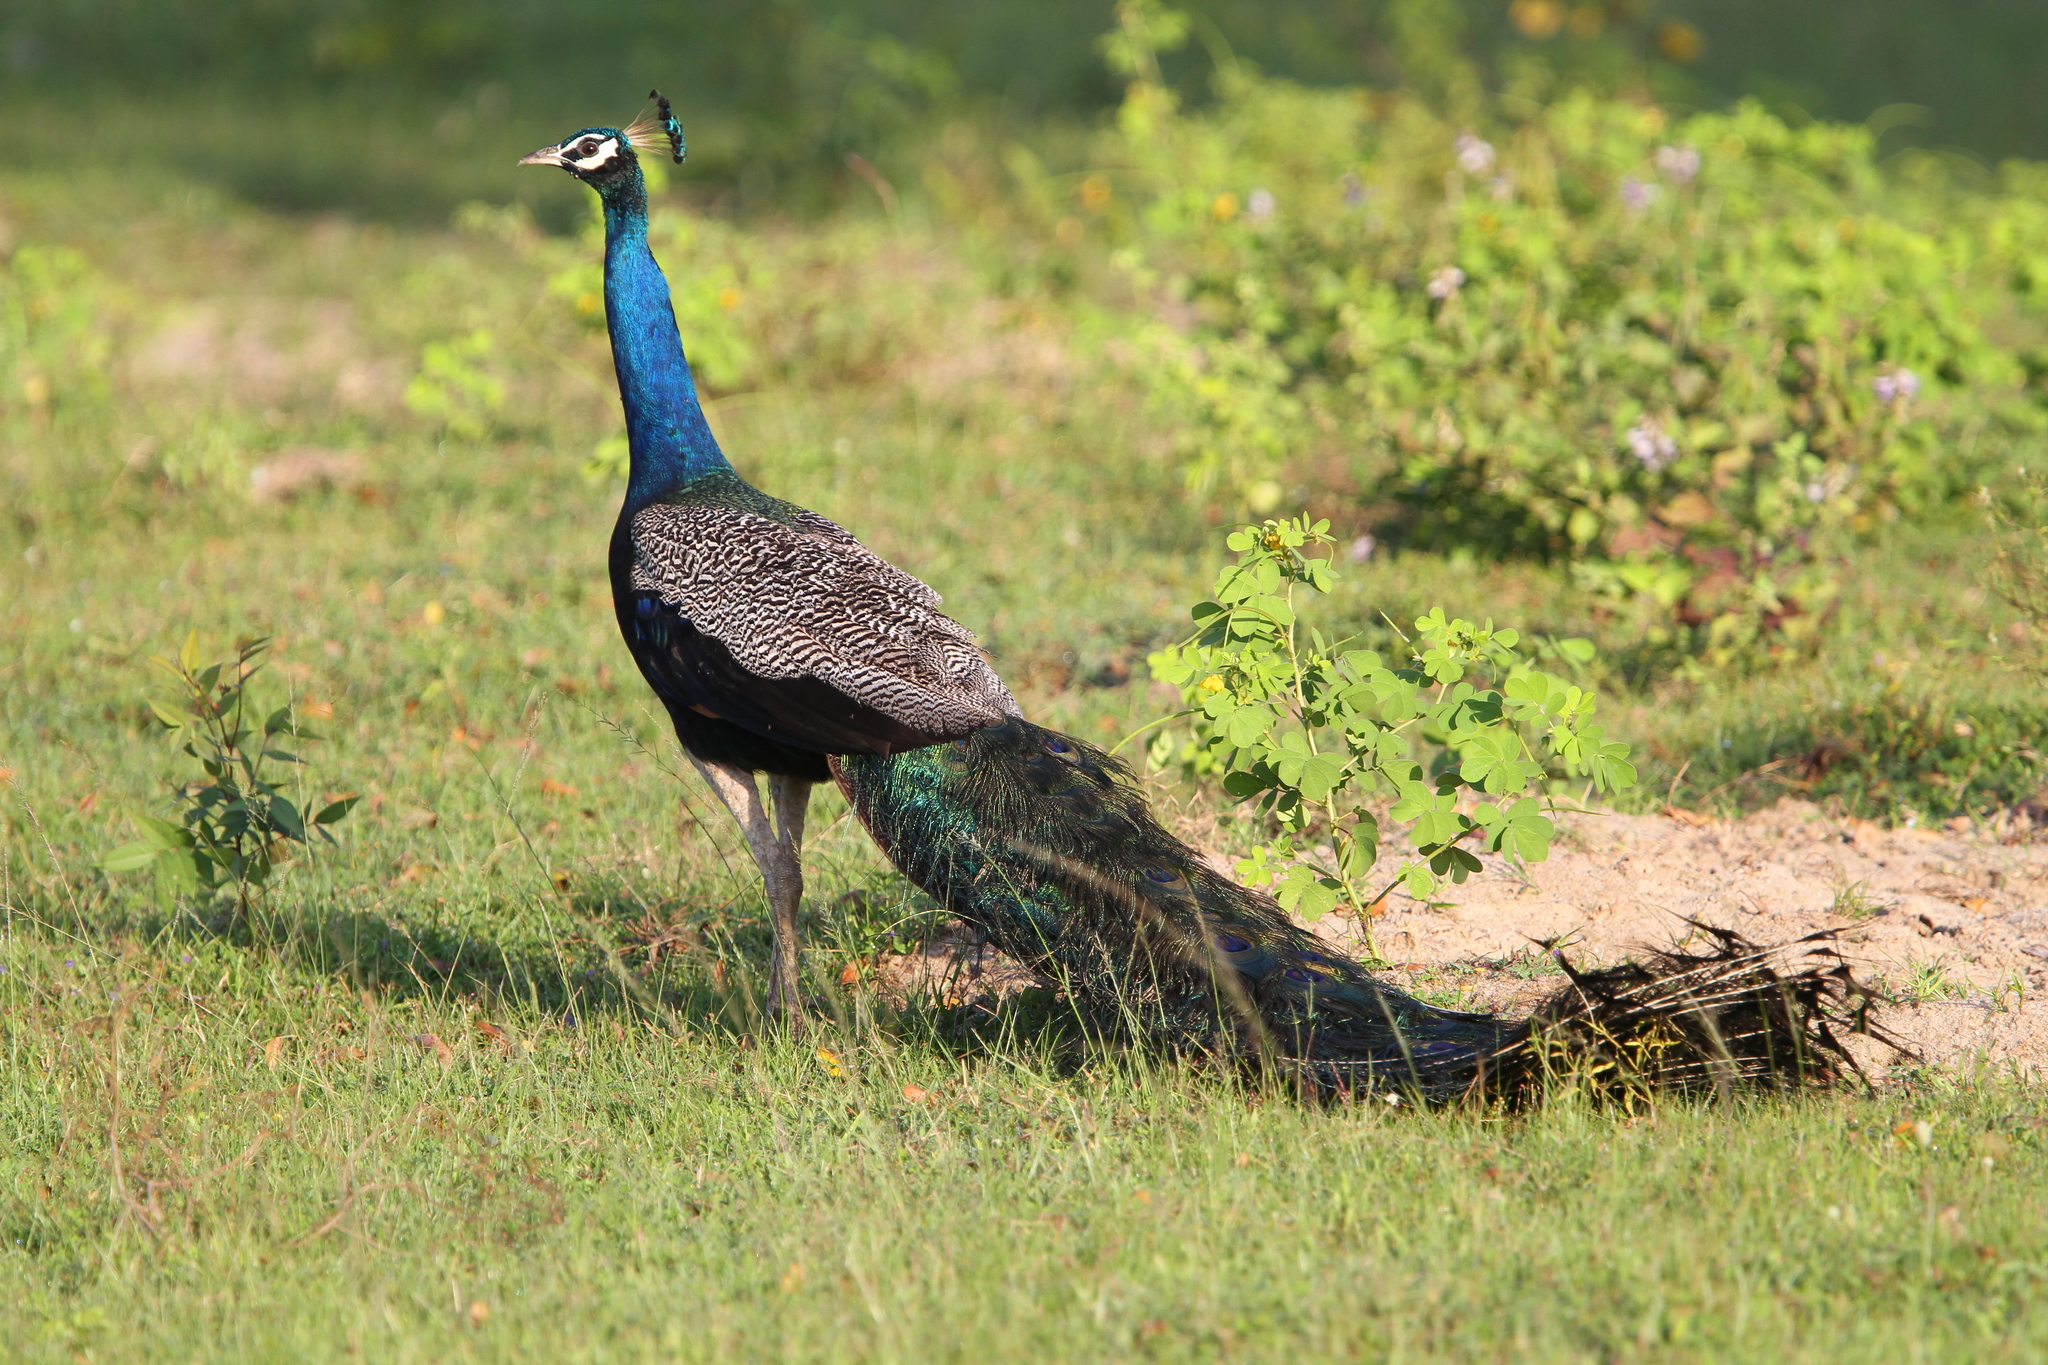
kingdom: Animalia
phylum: Chordata
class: Aves
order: Galliformes
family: Phasianidae
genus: Pavo
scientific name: Pavo cristatus
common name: Indian peafowl
